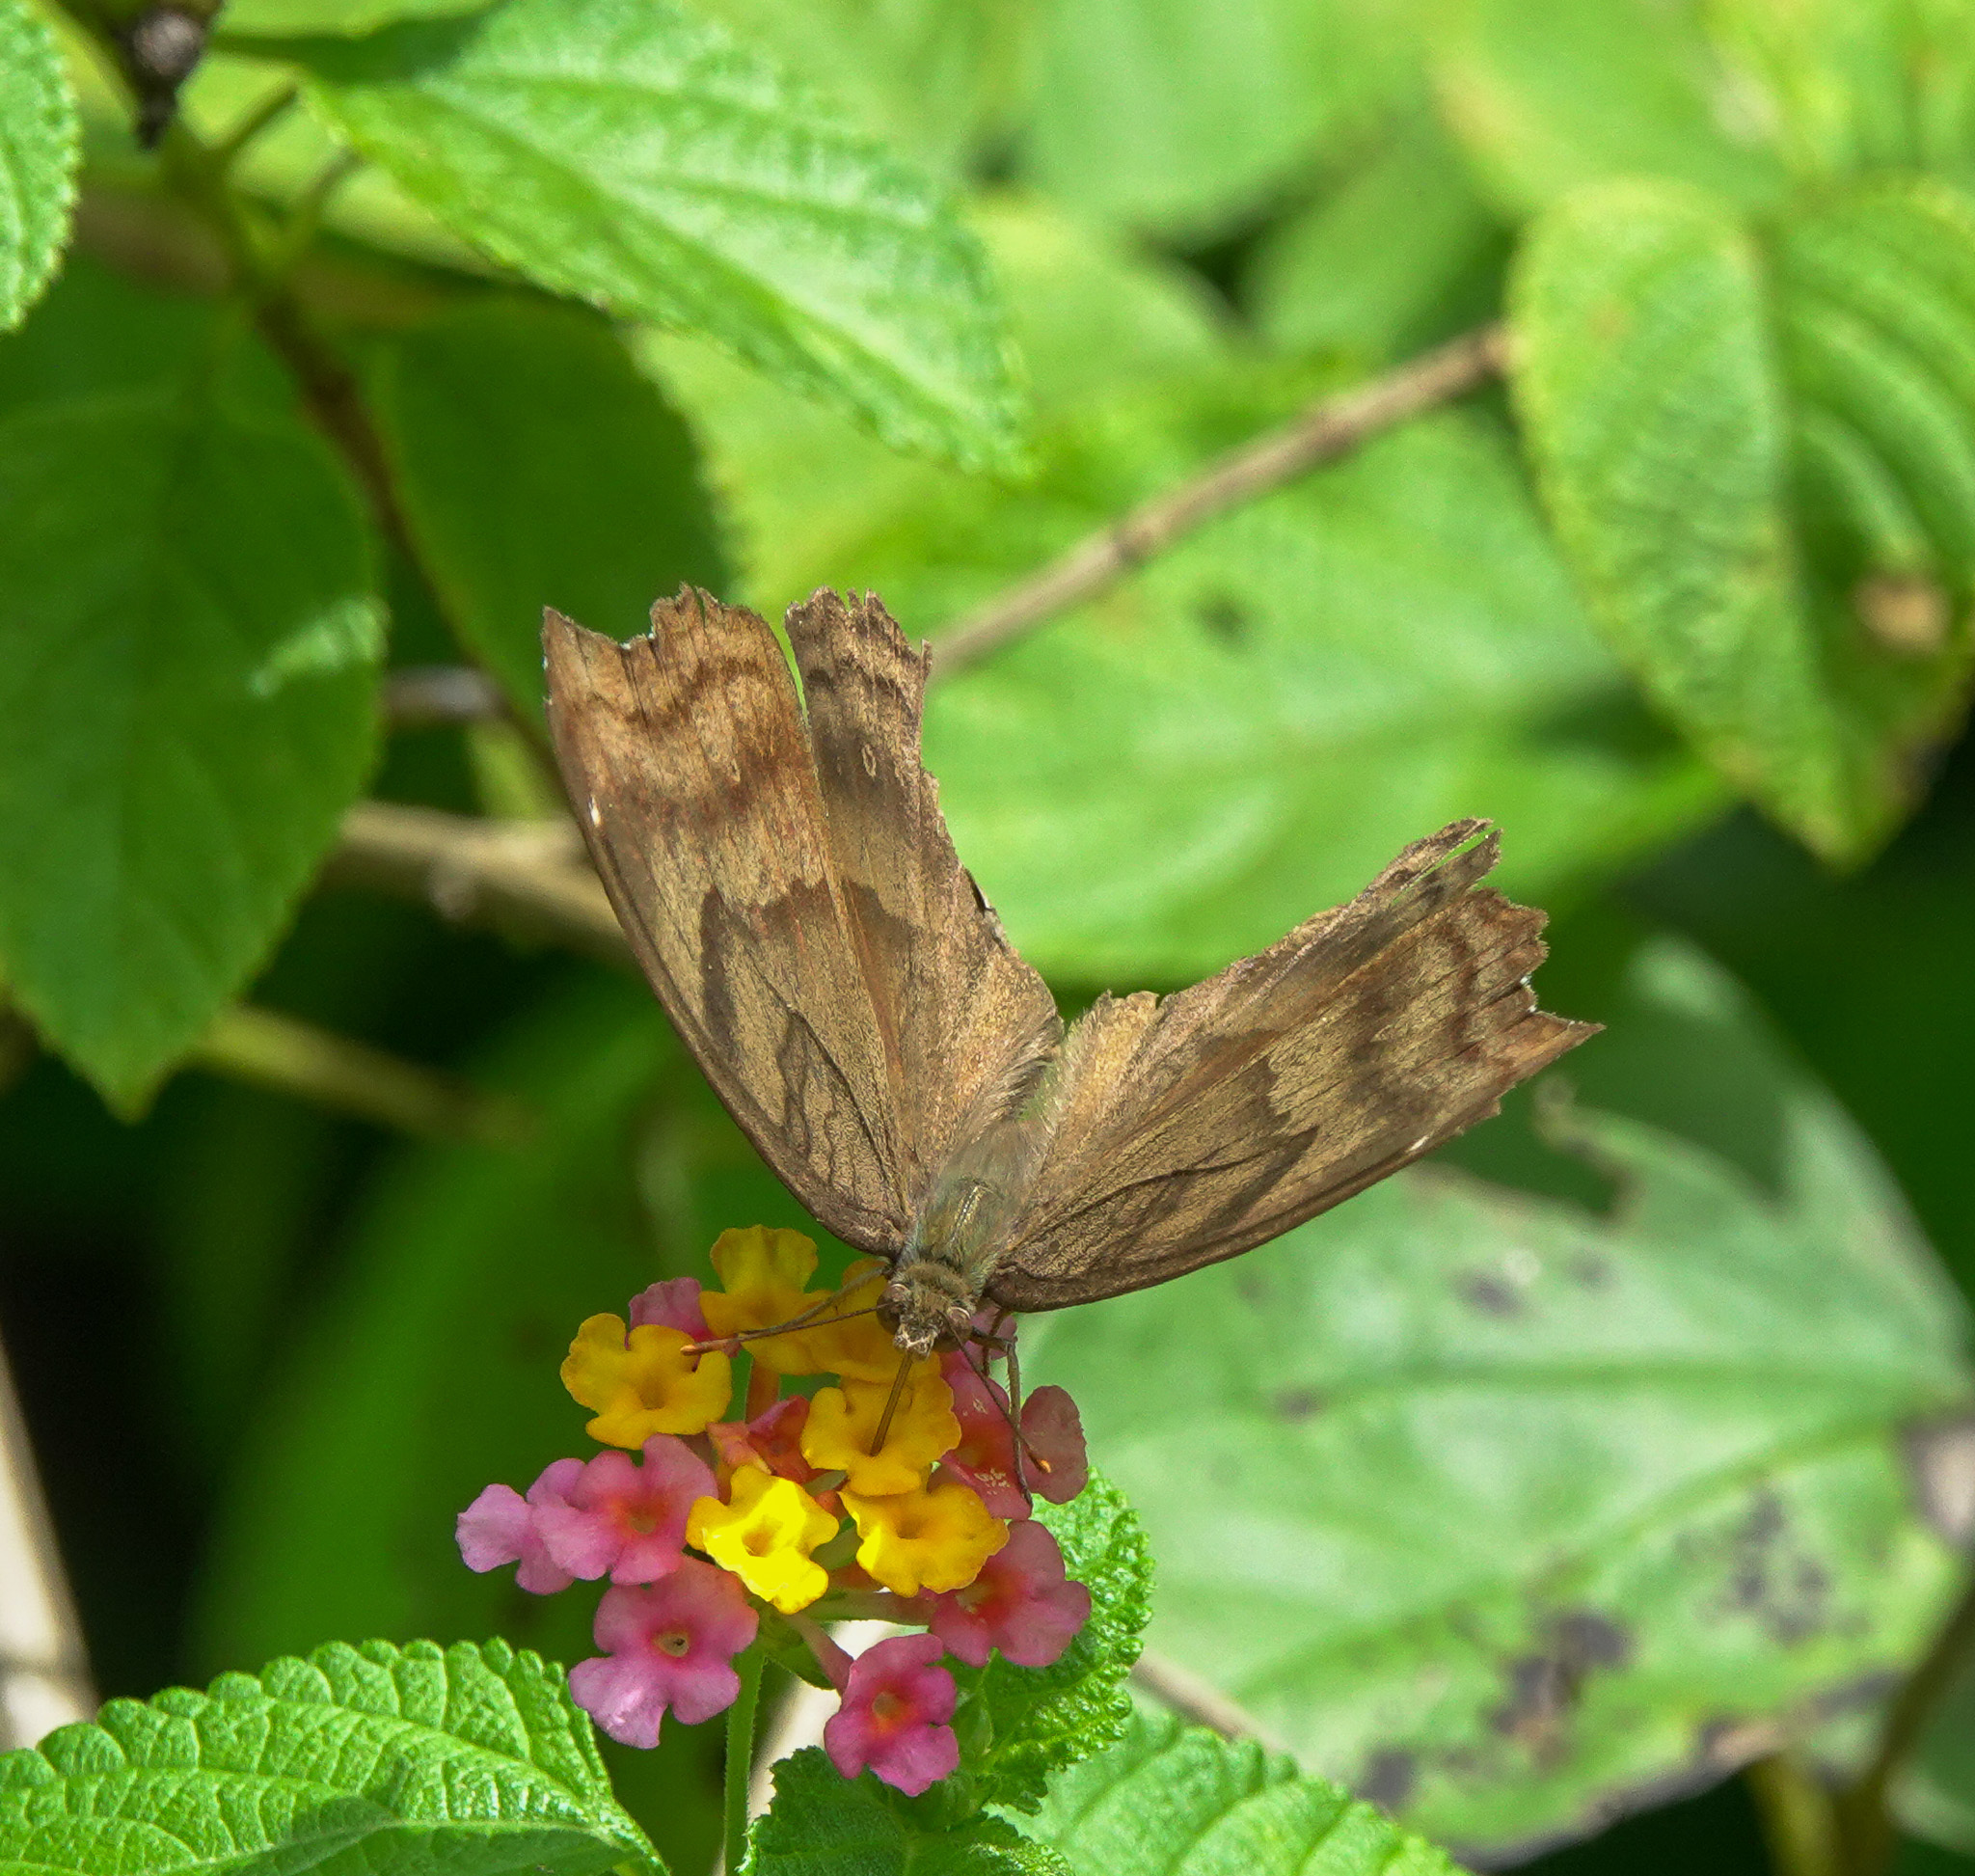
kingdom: Animalia
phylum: Arthropoda
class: Insecta
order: Lepidoptera
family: Nymphalidae
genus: Junonia
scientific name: Junonia iphita
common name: Chocolate pansy
